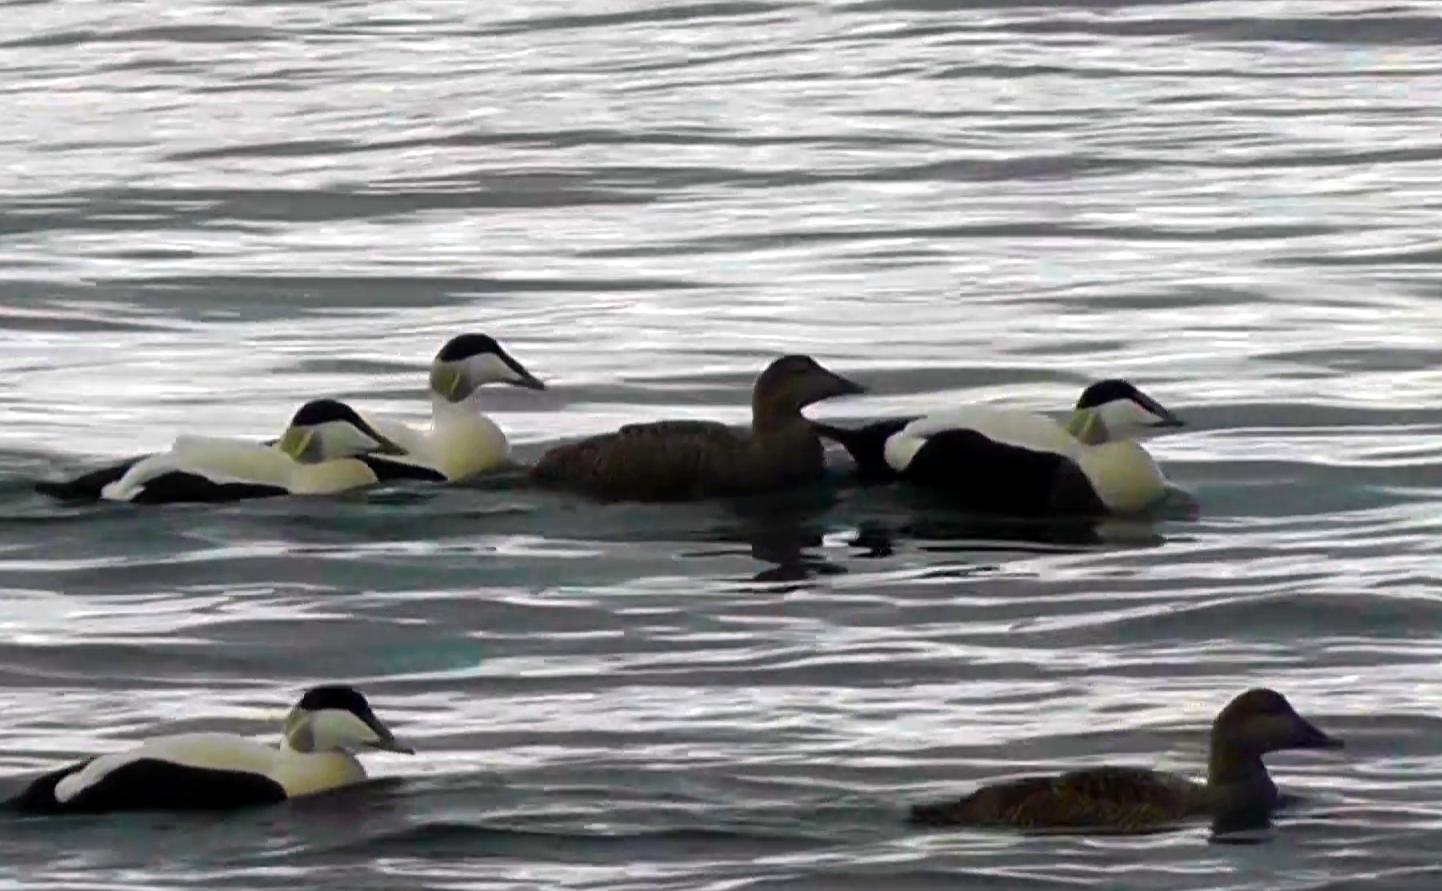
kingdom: Animalia
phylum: Chordata
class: Aves
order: Anseriformes
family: Anatidae
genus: Somateria
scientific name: Somateria mollissima
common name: Common eider
